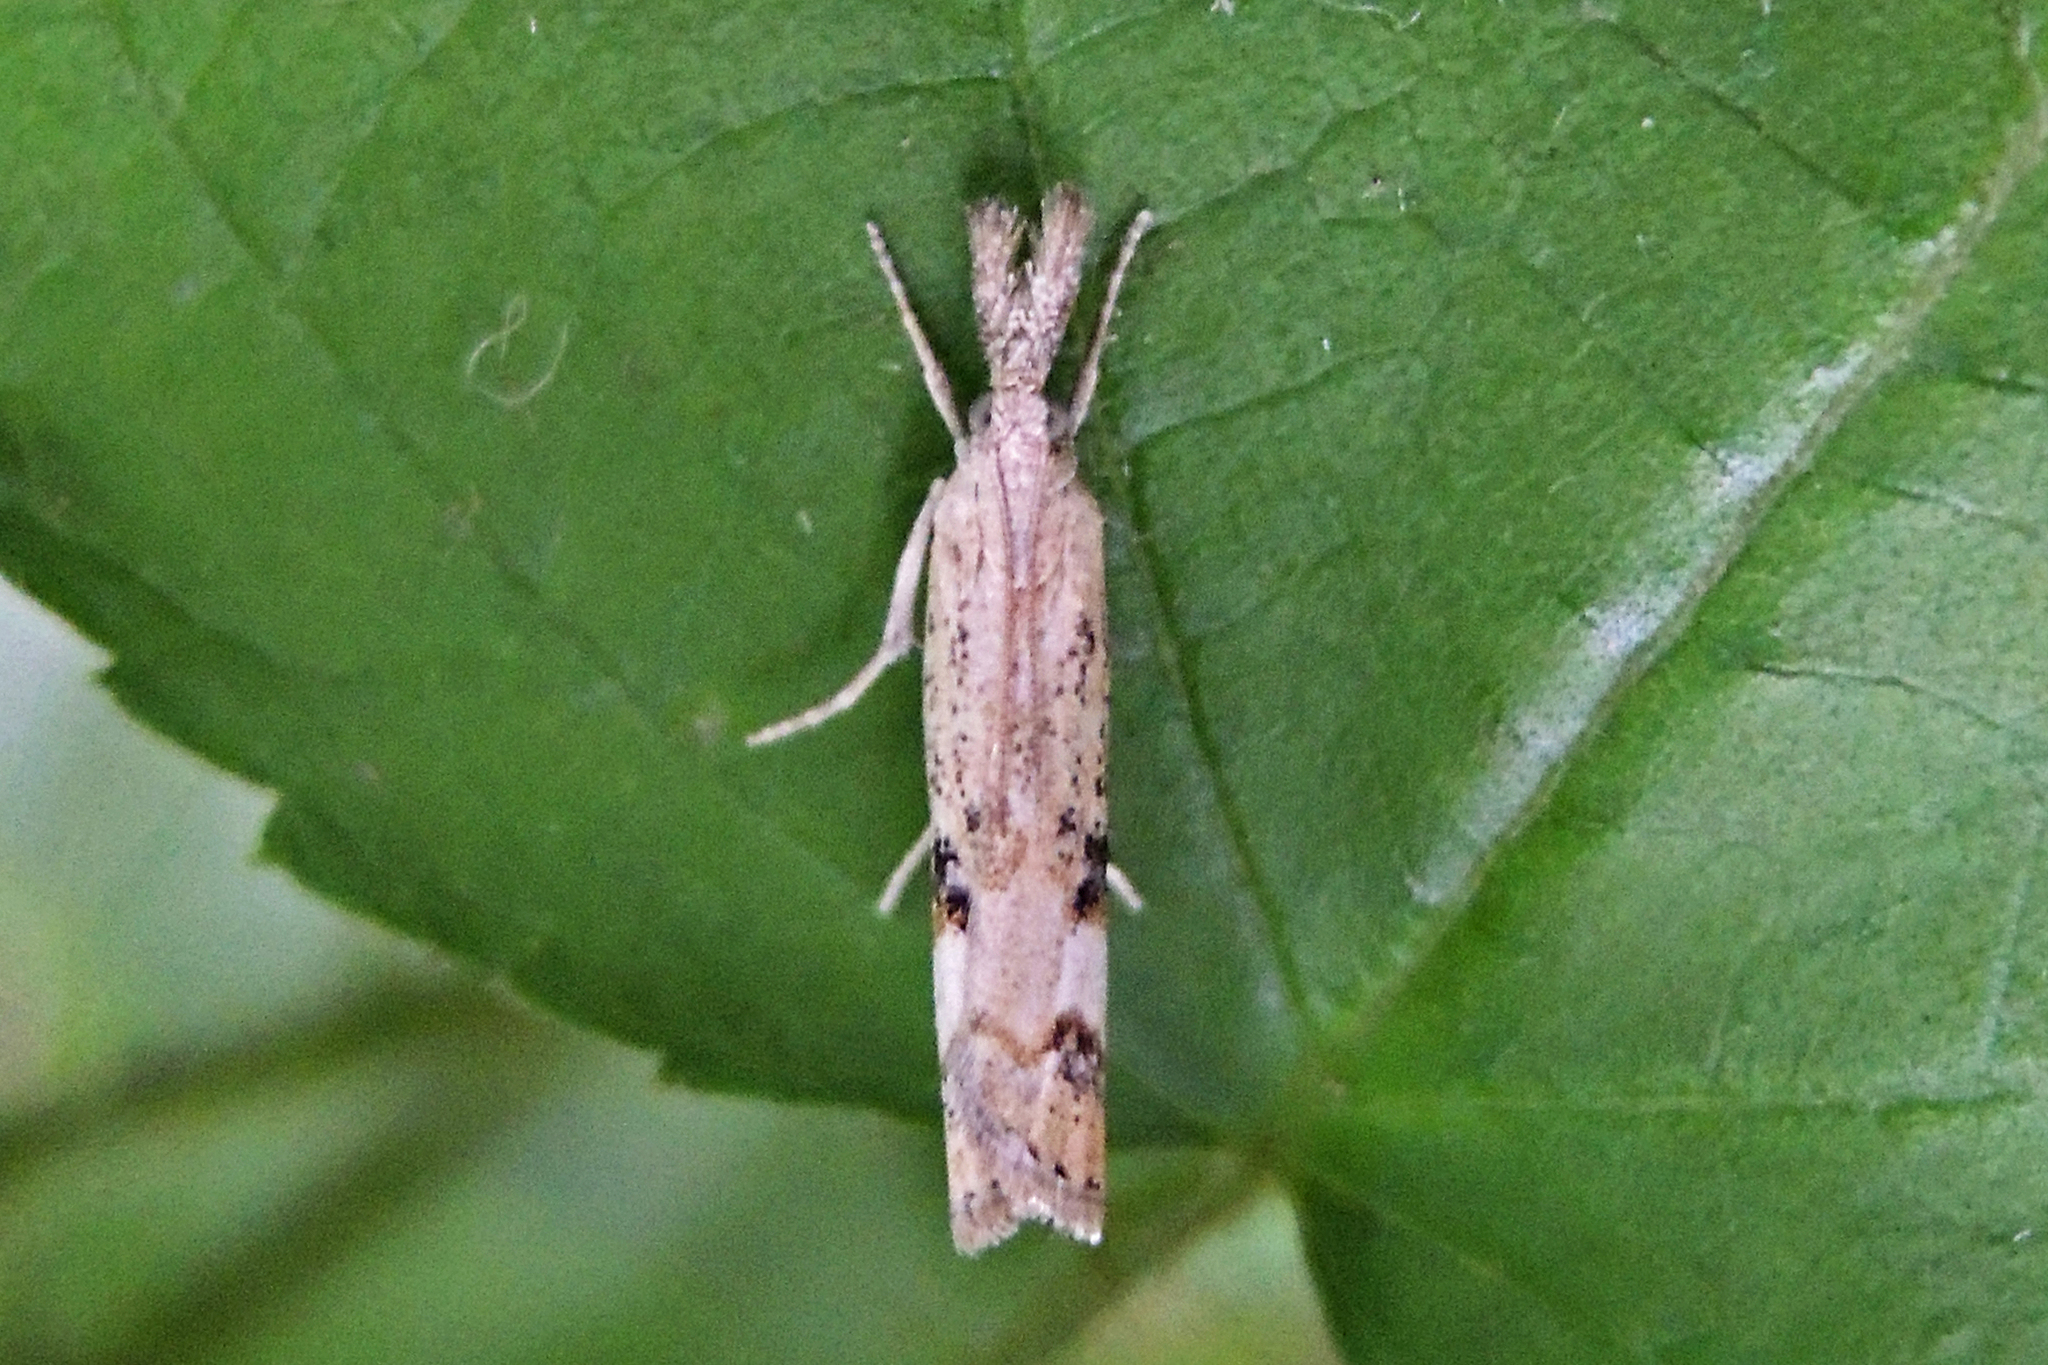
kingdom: Animalia
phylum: Arthropoda
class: Insecta
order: Lepidoptera
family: Crambidae
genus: Neodactria
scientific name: Neodactria zeellus
